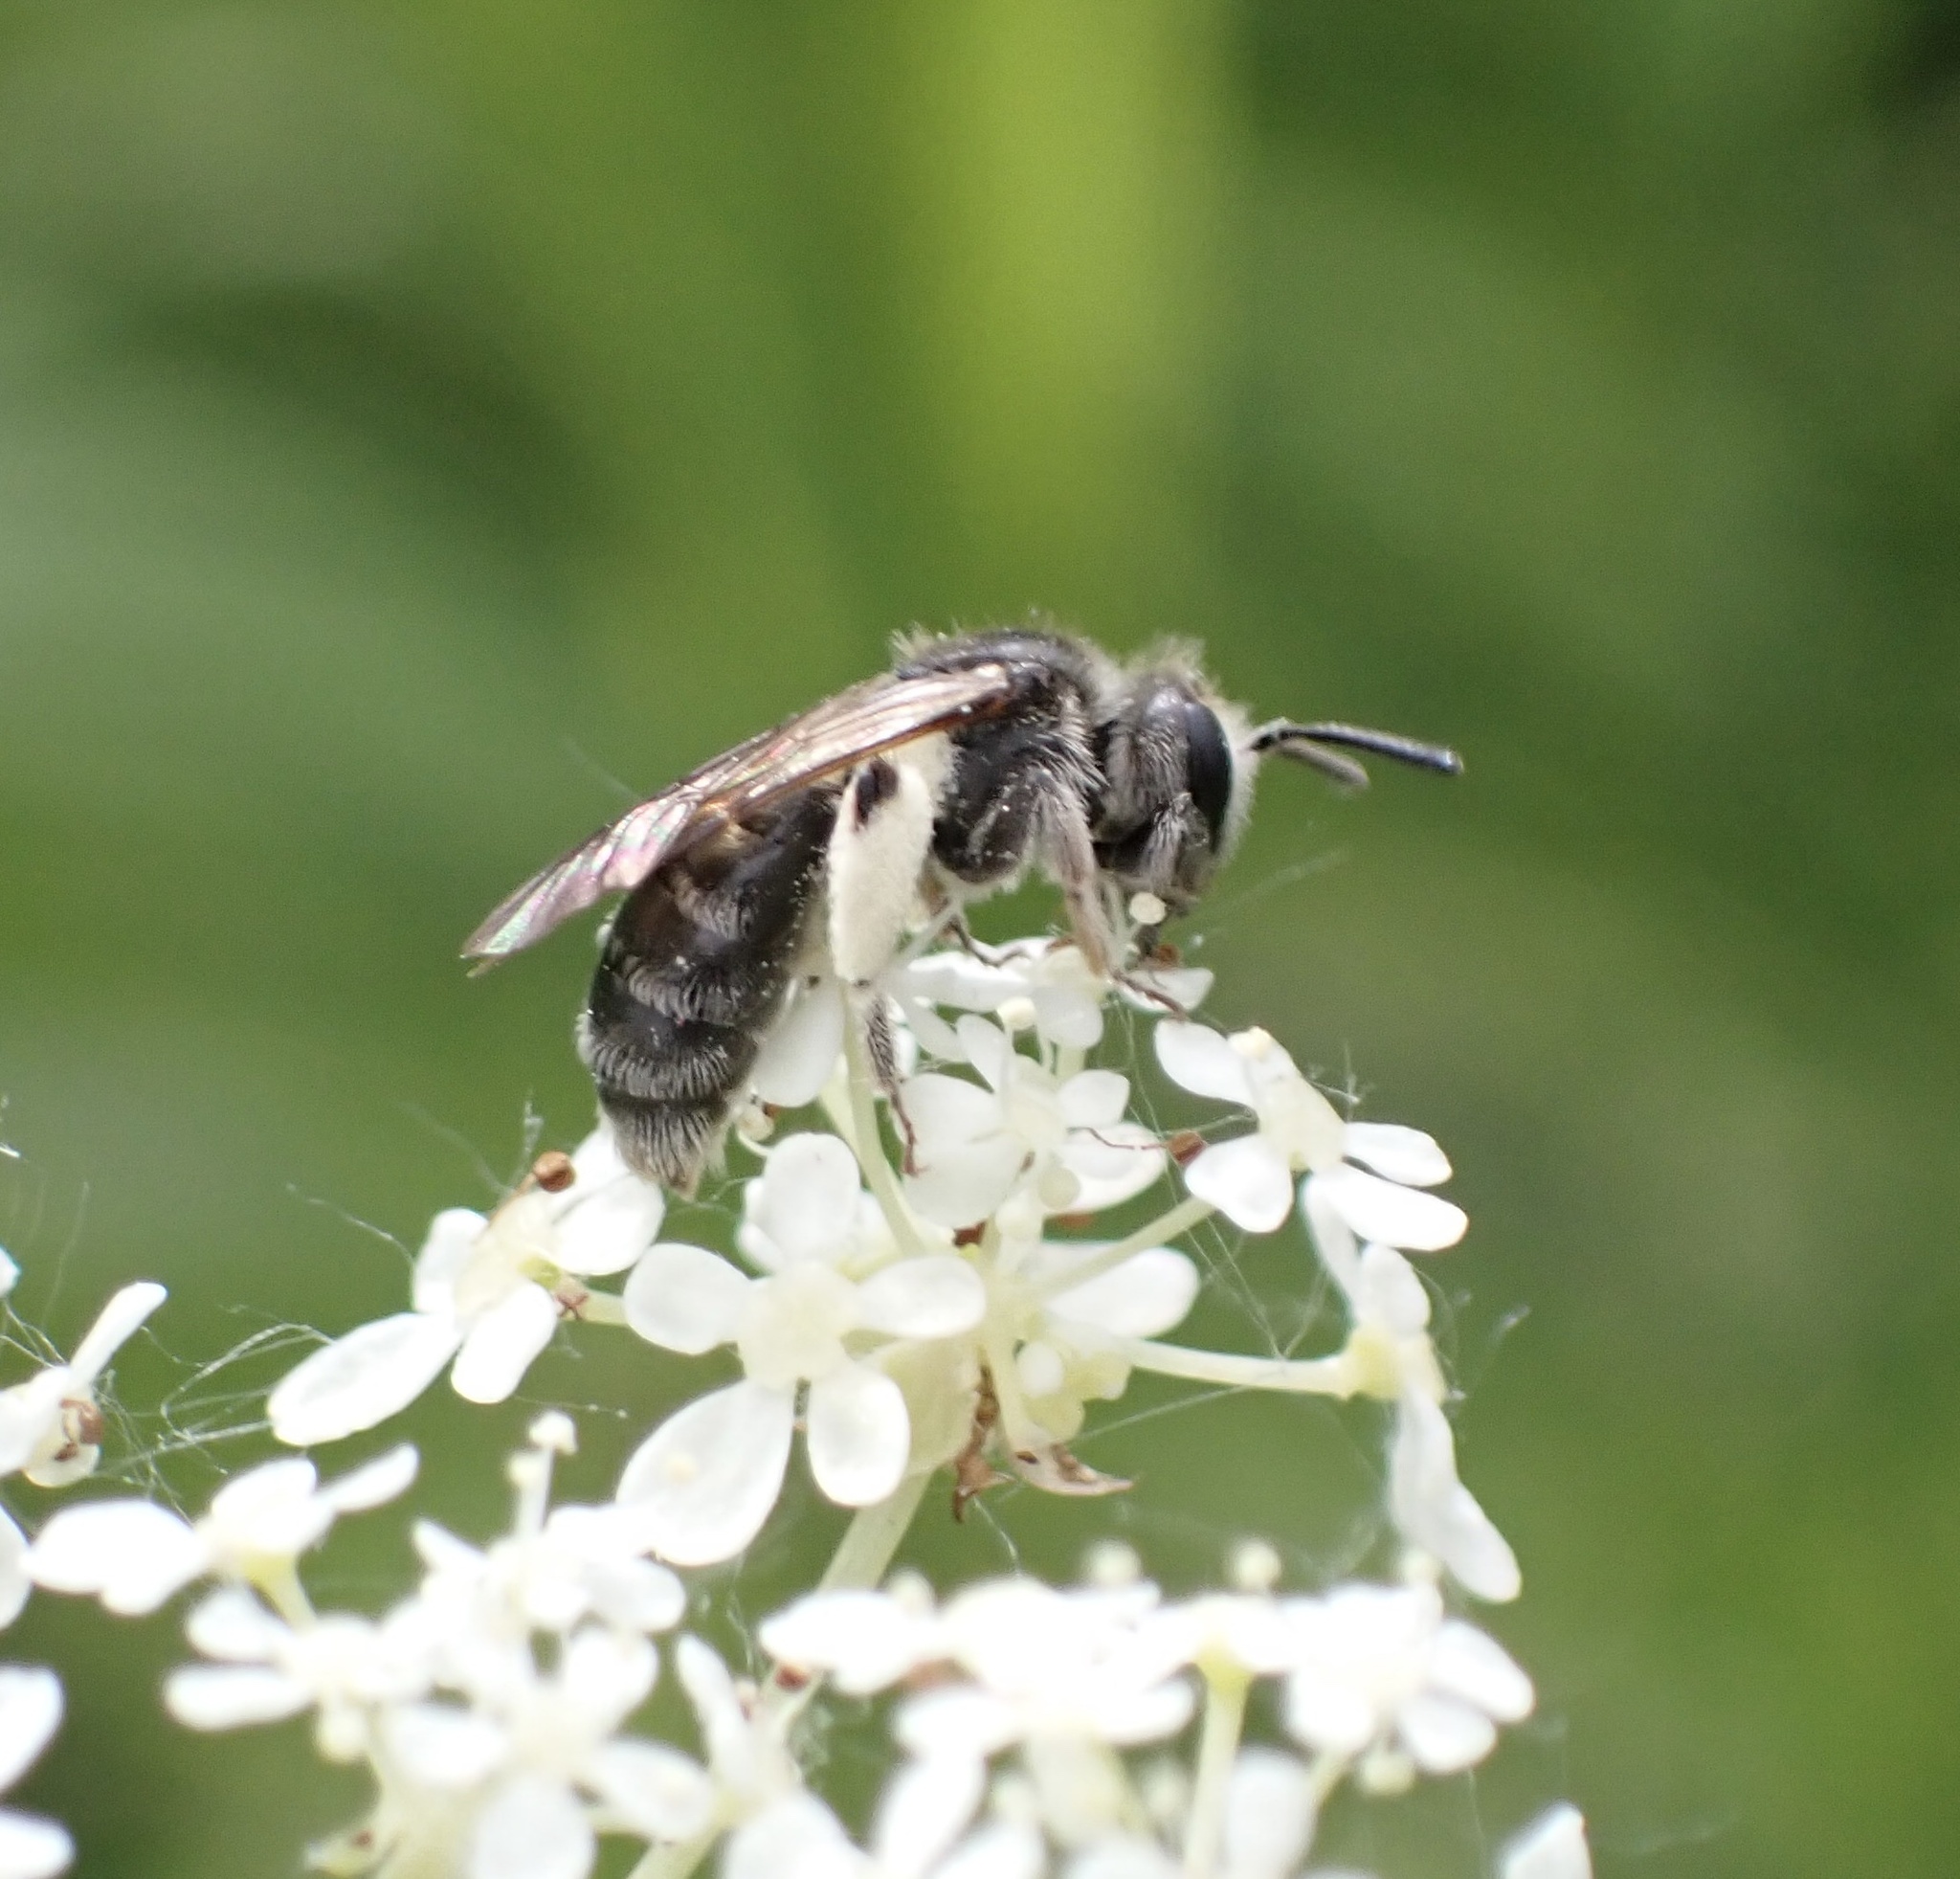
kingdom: Animalia
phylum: Arthropoda
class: Insecta
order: Hymenoptera
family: Andrenidae
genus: Andrena
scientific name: Andrena niveata
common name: Long-fringed mini-miner
